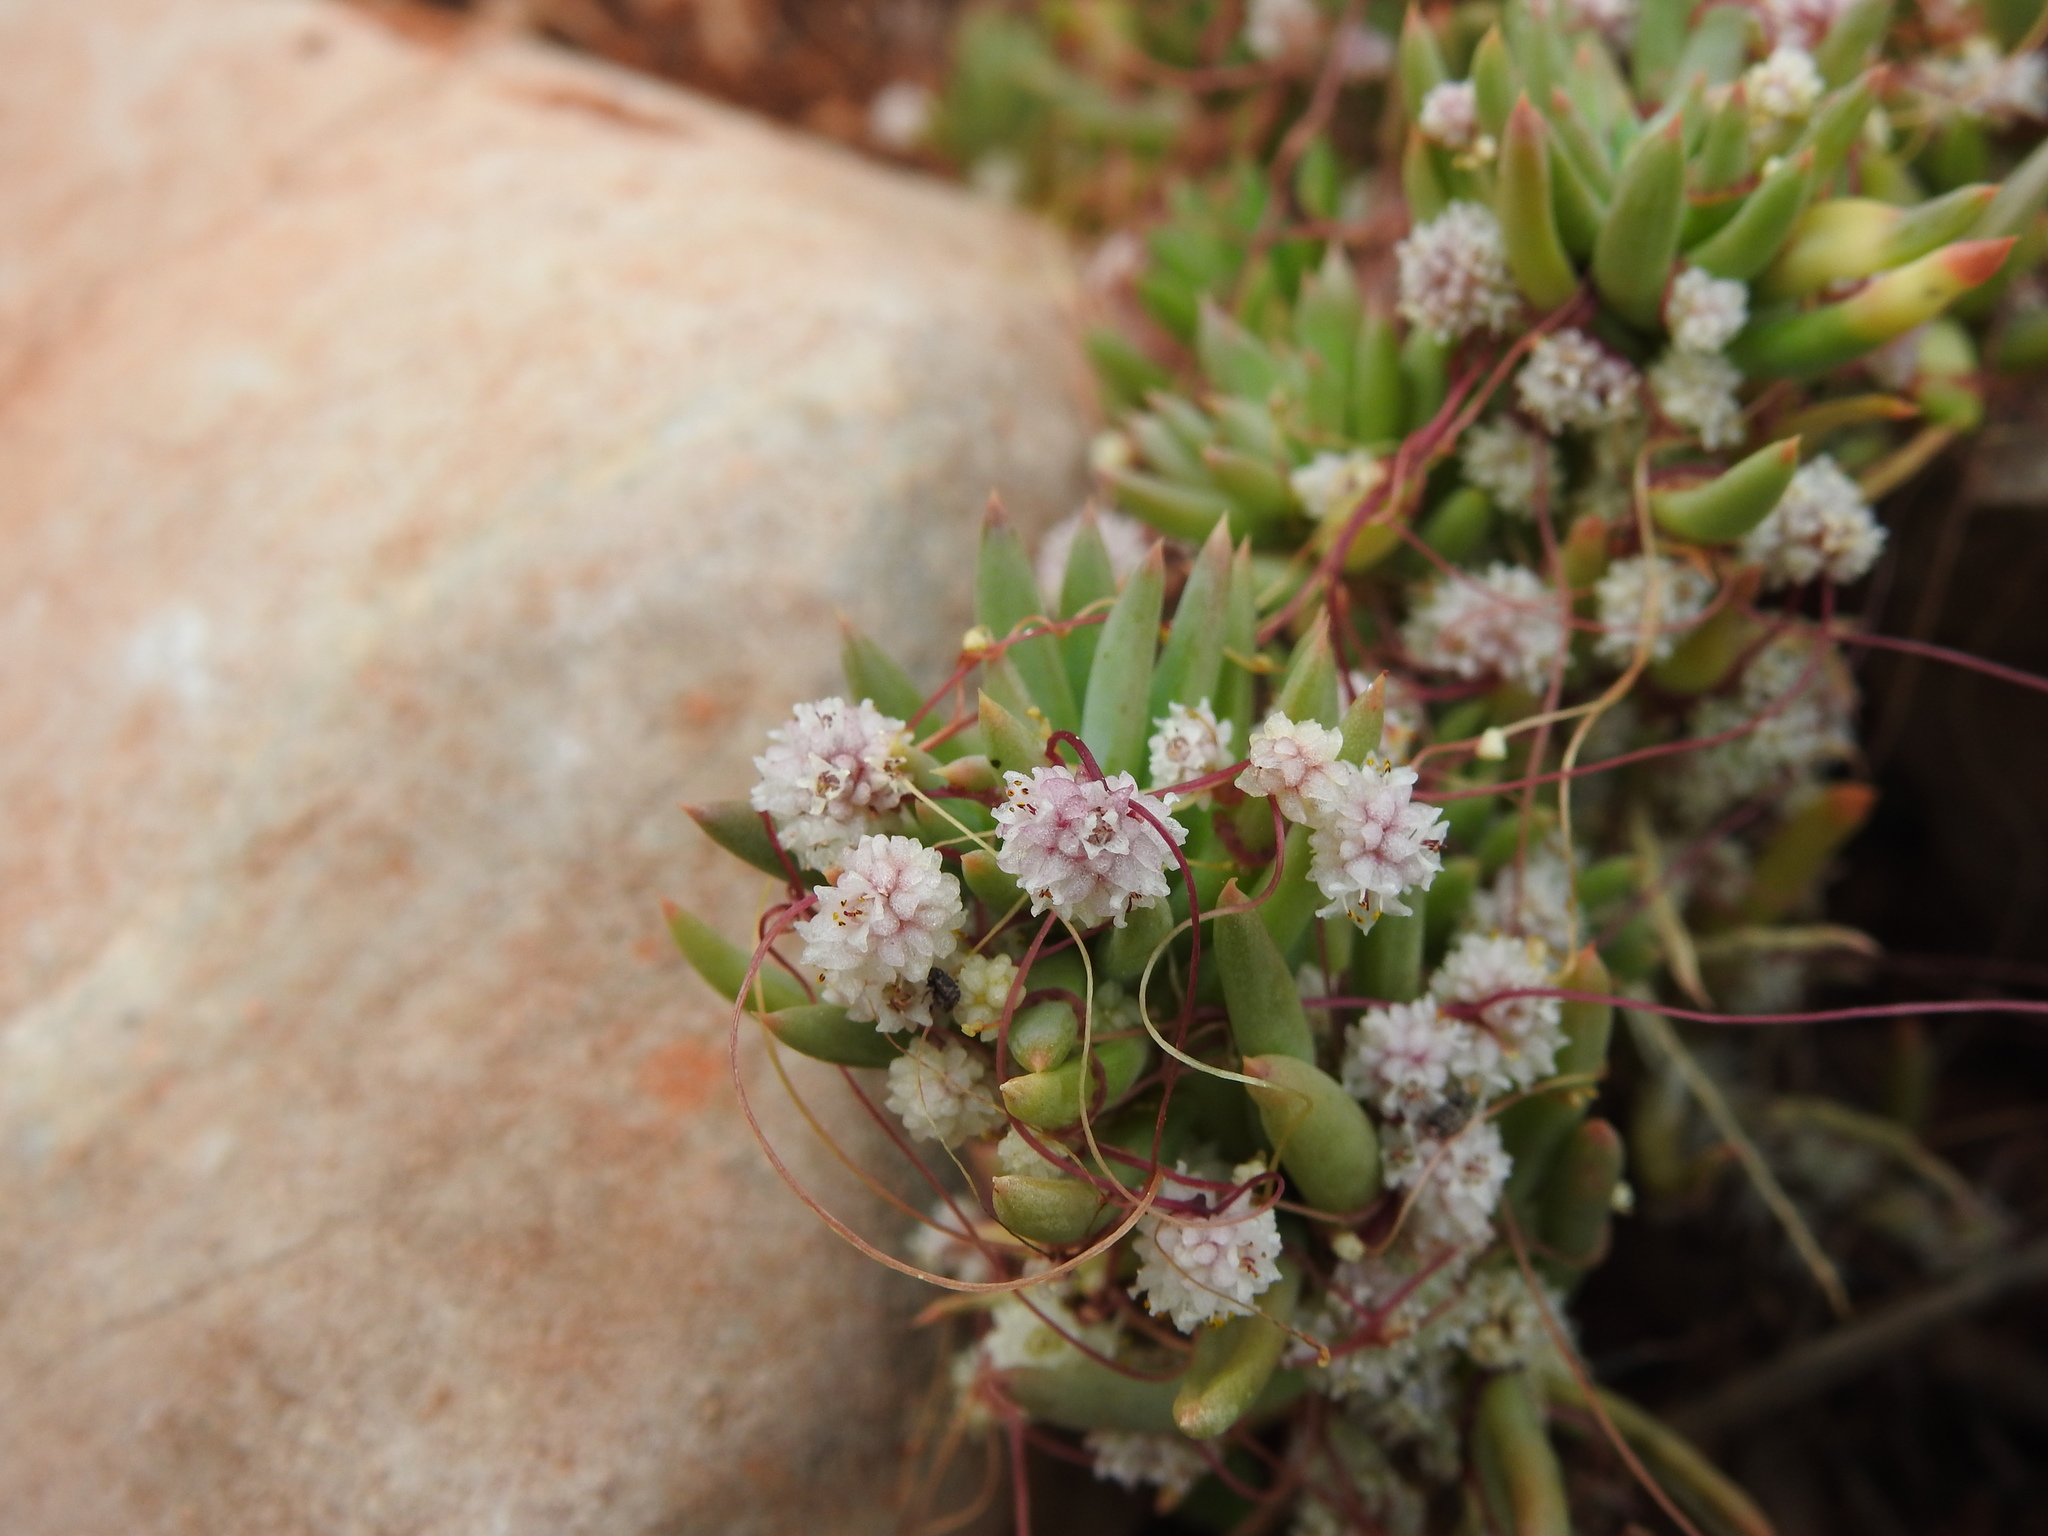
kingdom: Plantae
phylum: Tracheophyta
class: Magnoliopsida
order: Solanales
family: Convolvulaceae
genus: Cuscuta
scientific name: Cuscuta planiflora
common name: Small-seed alfalfa dodder
